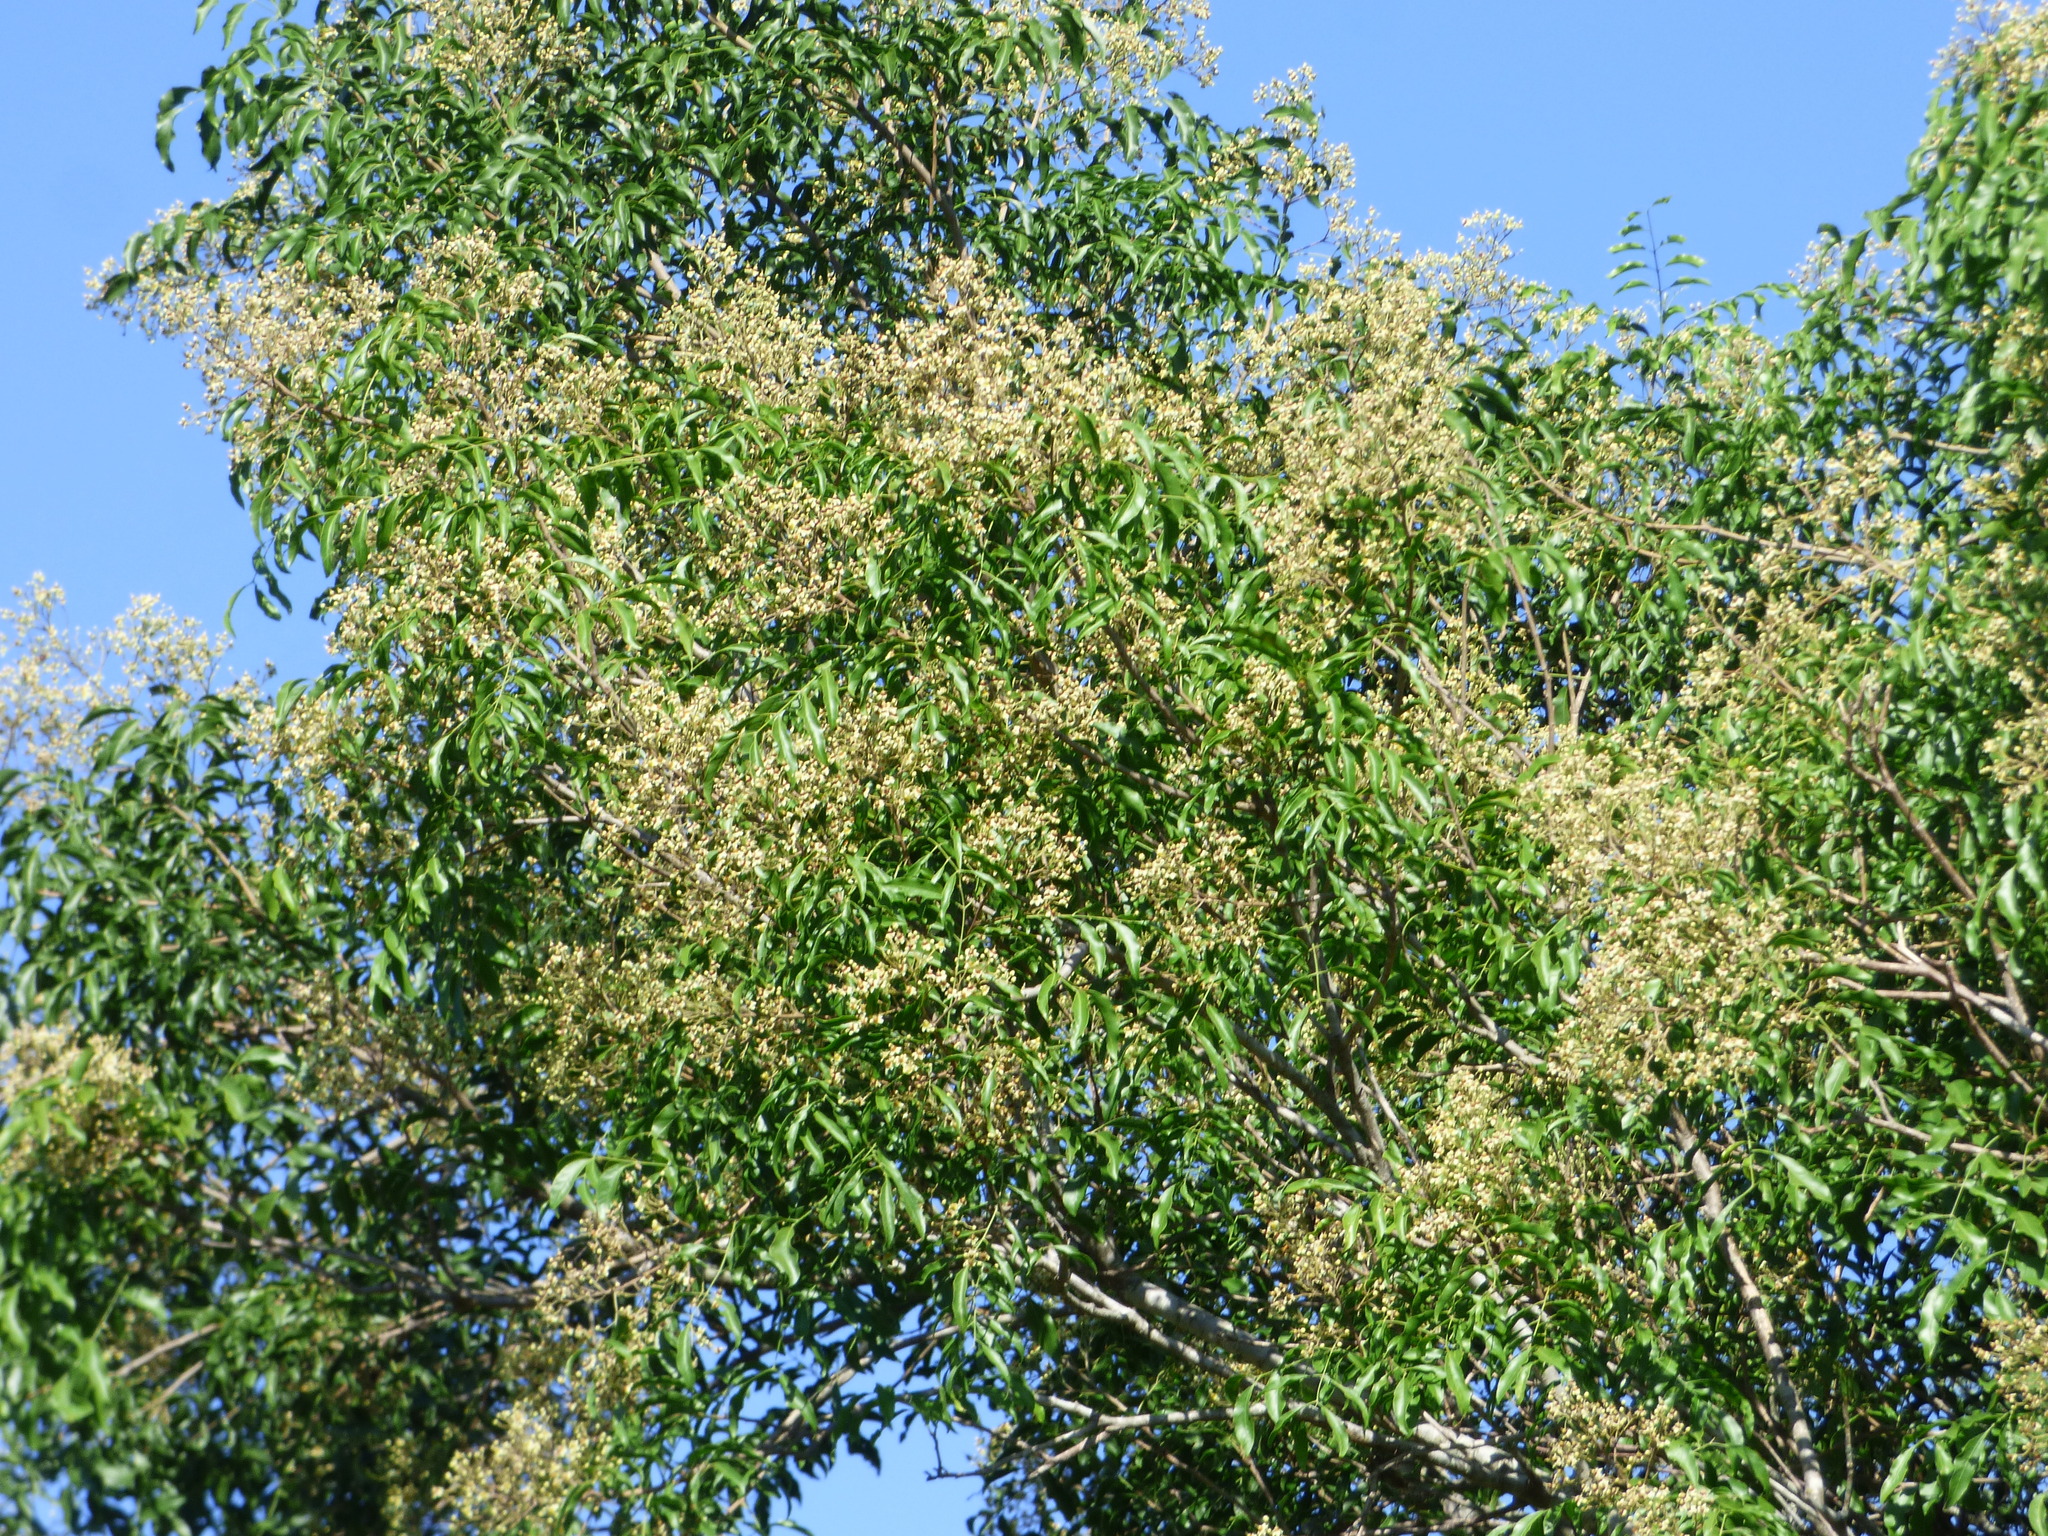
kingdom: Plantae
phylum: Tracheophyta
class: Magnoliopsida
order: Sapindales
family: Sapindaceae
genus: Diplokeleba
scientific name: Diplokeleba floribunda
